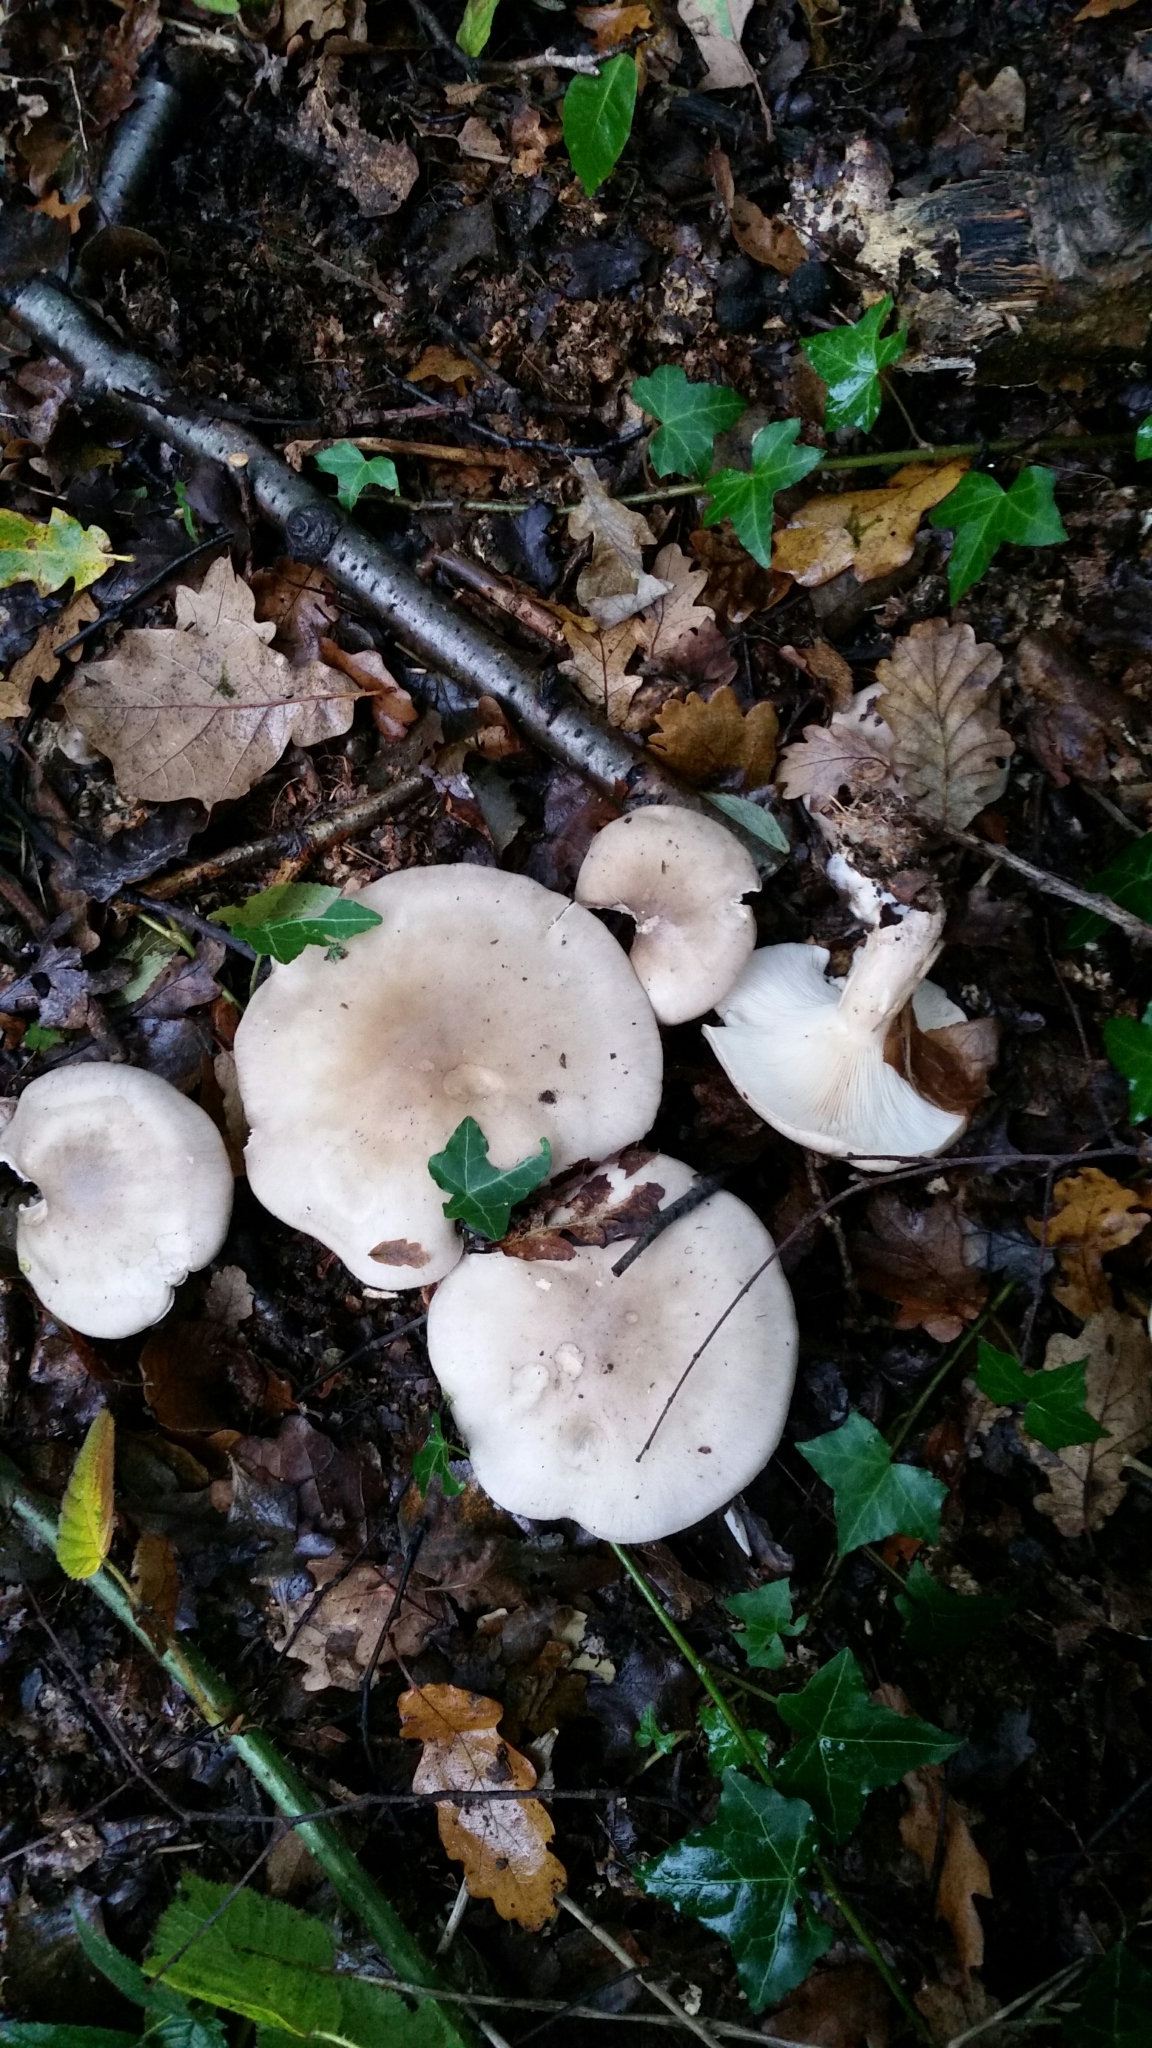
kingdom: Fungi
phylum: Basidiomycota
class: Agaricomycetes
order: Agaricales
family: Tricholomataceae
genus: Clitocybe
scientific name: Clitocybe nebularis
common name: Clouded agaric
